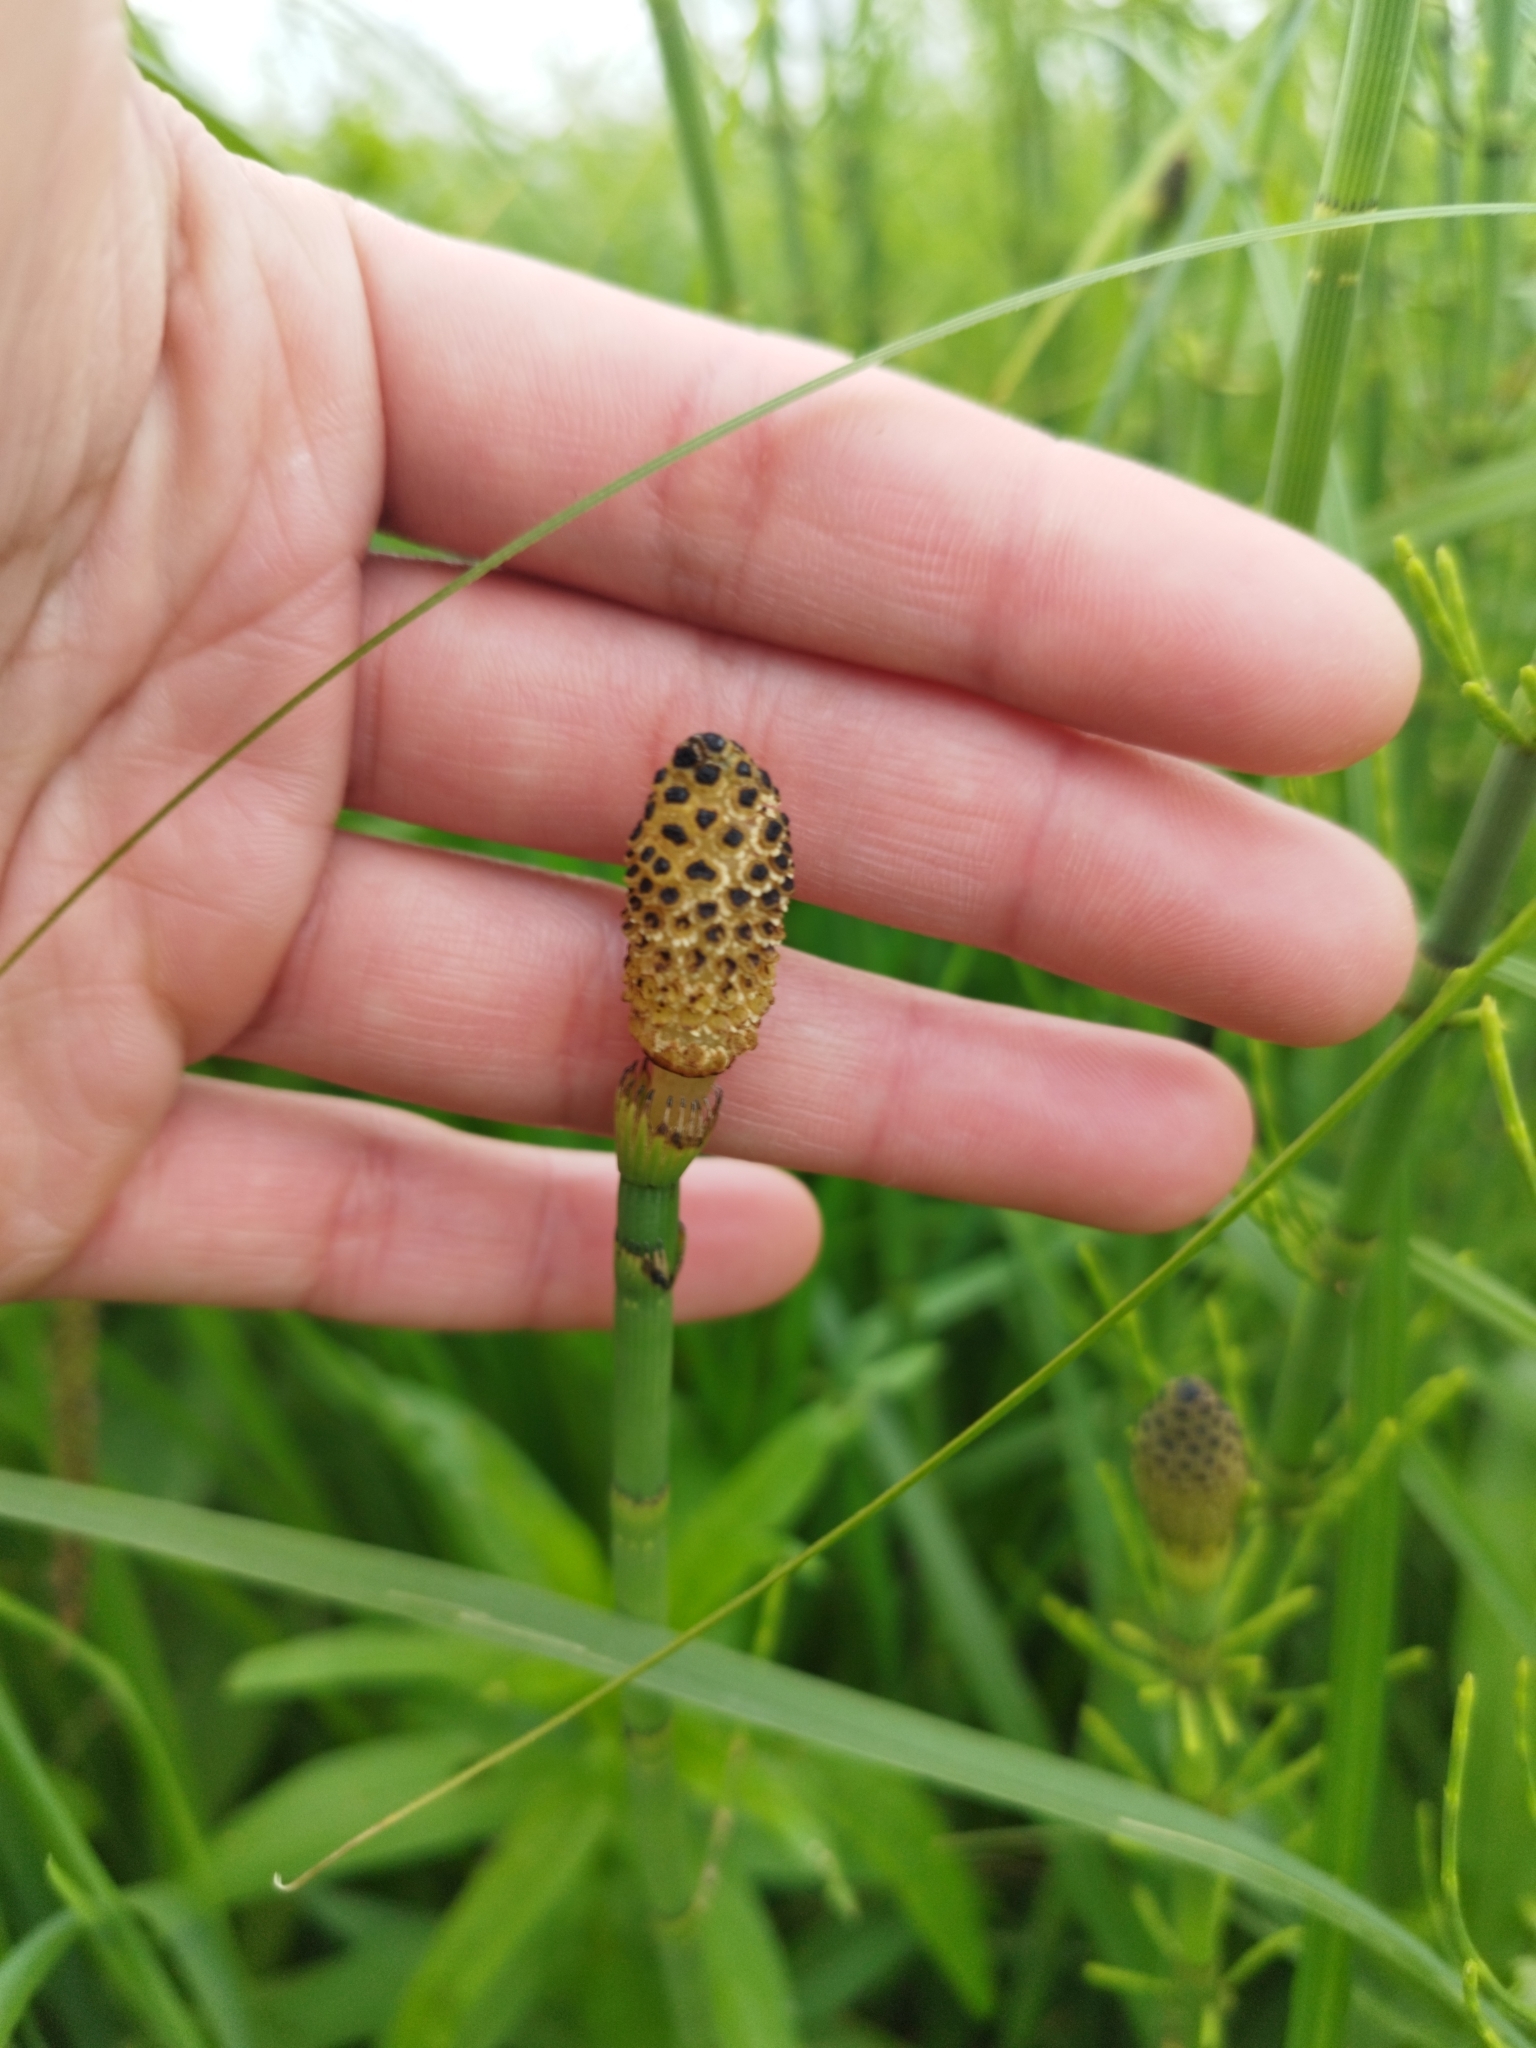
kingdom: Plantae
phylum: Tracheophyta
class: Polypodiopsida
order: Equisetales
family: Equisetaceae
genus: Equisetum
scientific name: Equisetum fluviatile
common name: Water horsetail
